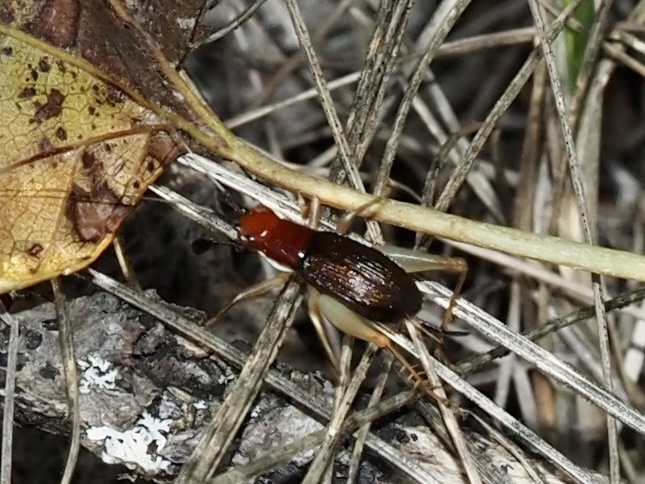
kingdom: Animalia
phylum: Arthropoda
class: Insecta
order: Orthoptera
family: Trigonidiidae
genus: Phyllopalpus
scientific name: Phyllopalpus pulchellus
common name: Handsome trig
